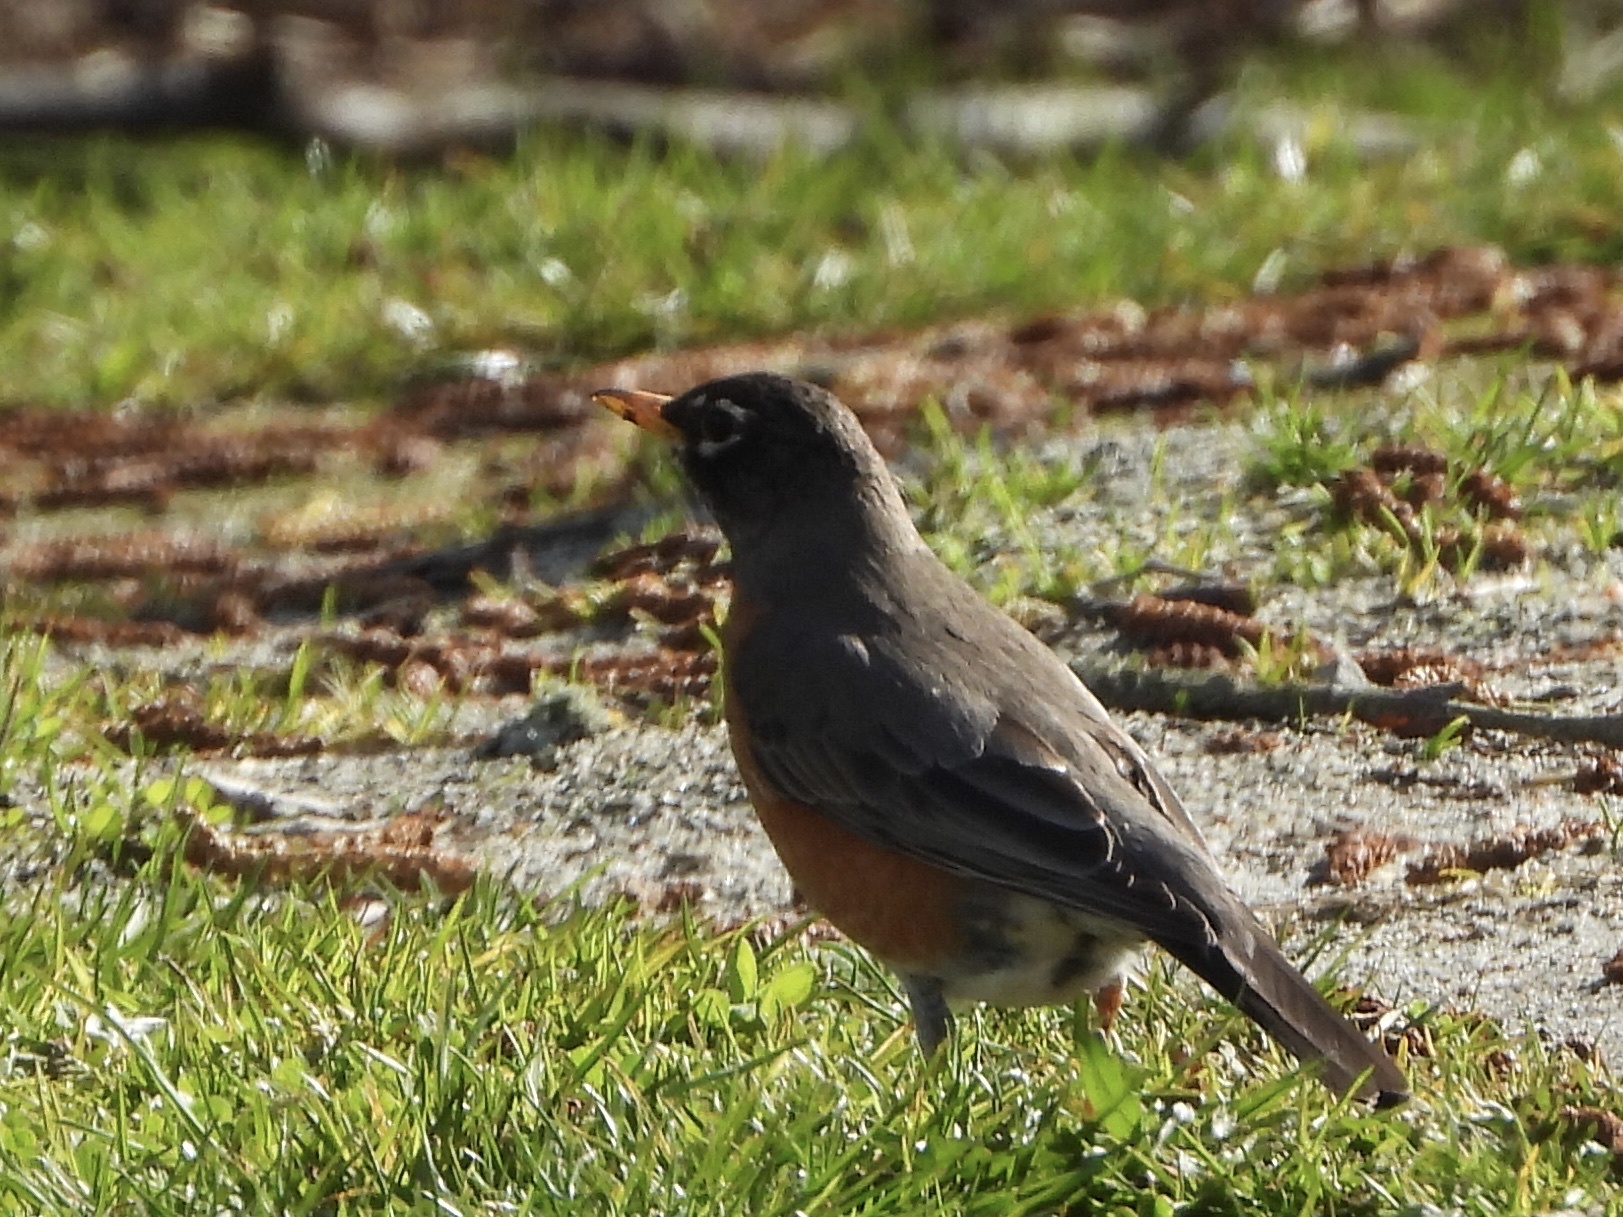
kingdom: Animalia
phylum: Chordata
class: Aves
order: Passeriformes
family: Turdidae
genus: Turdus
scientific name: Turdus migratorius
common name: American robin
